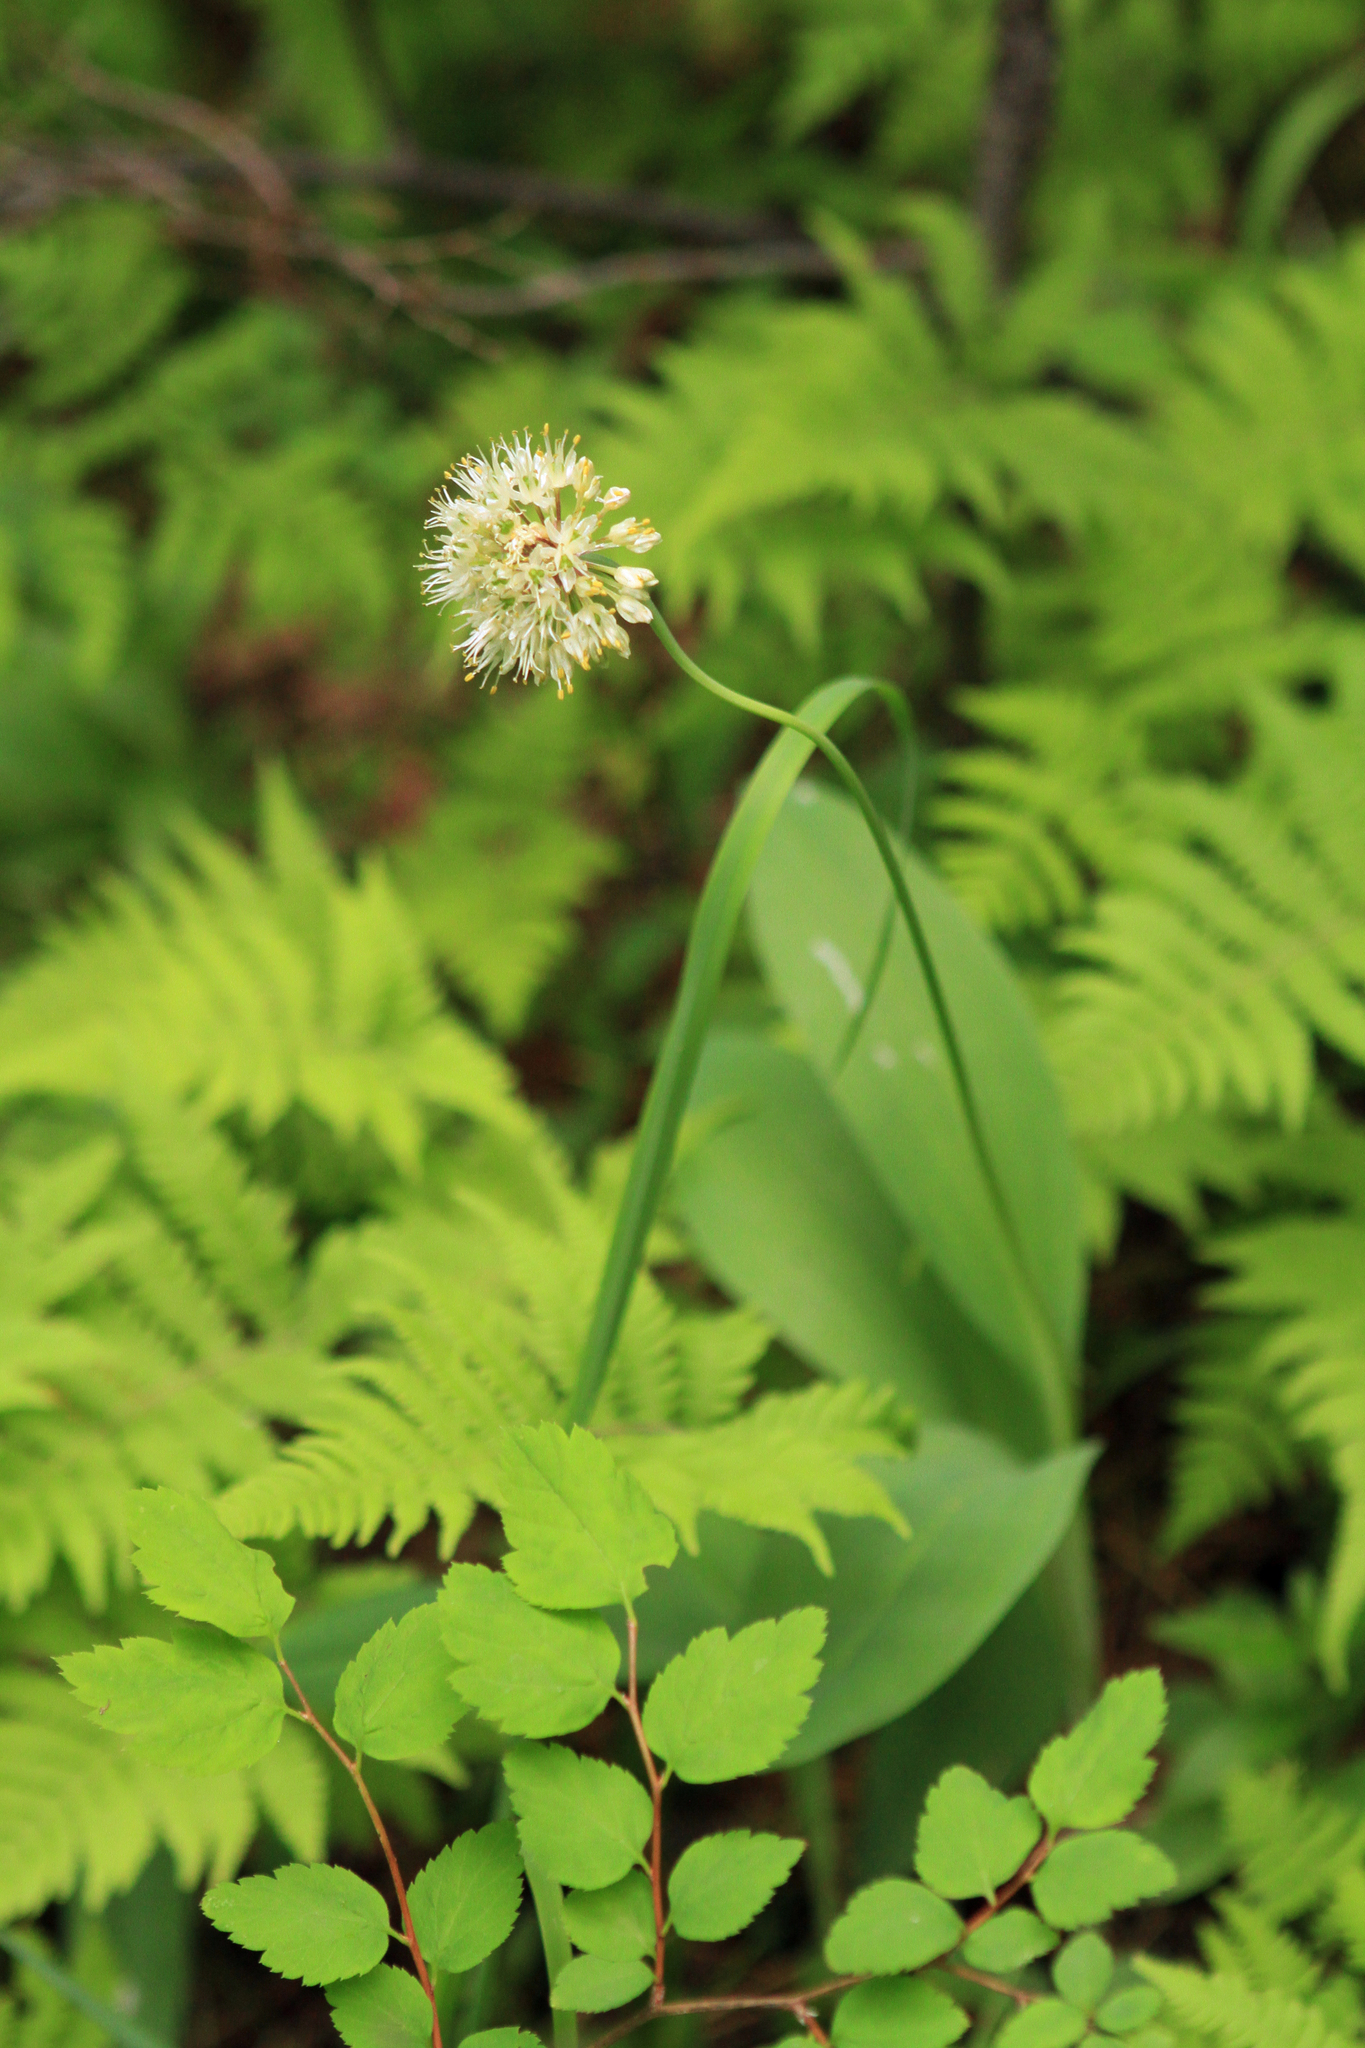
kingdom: Plantae
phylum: Tracheophyta
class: Magnoliopsida
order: Rosales
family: Rosaceae
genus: Spiraea
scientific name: Spiraea chamaedryfolia
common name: Elm-leaved spiraea
